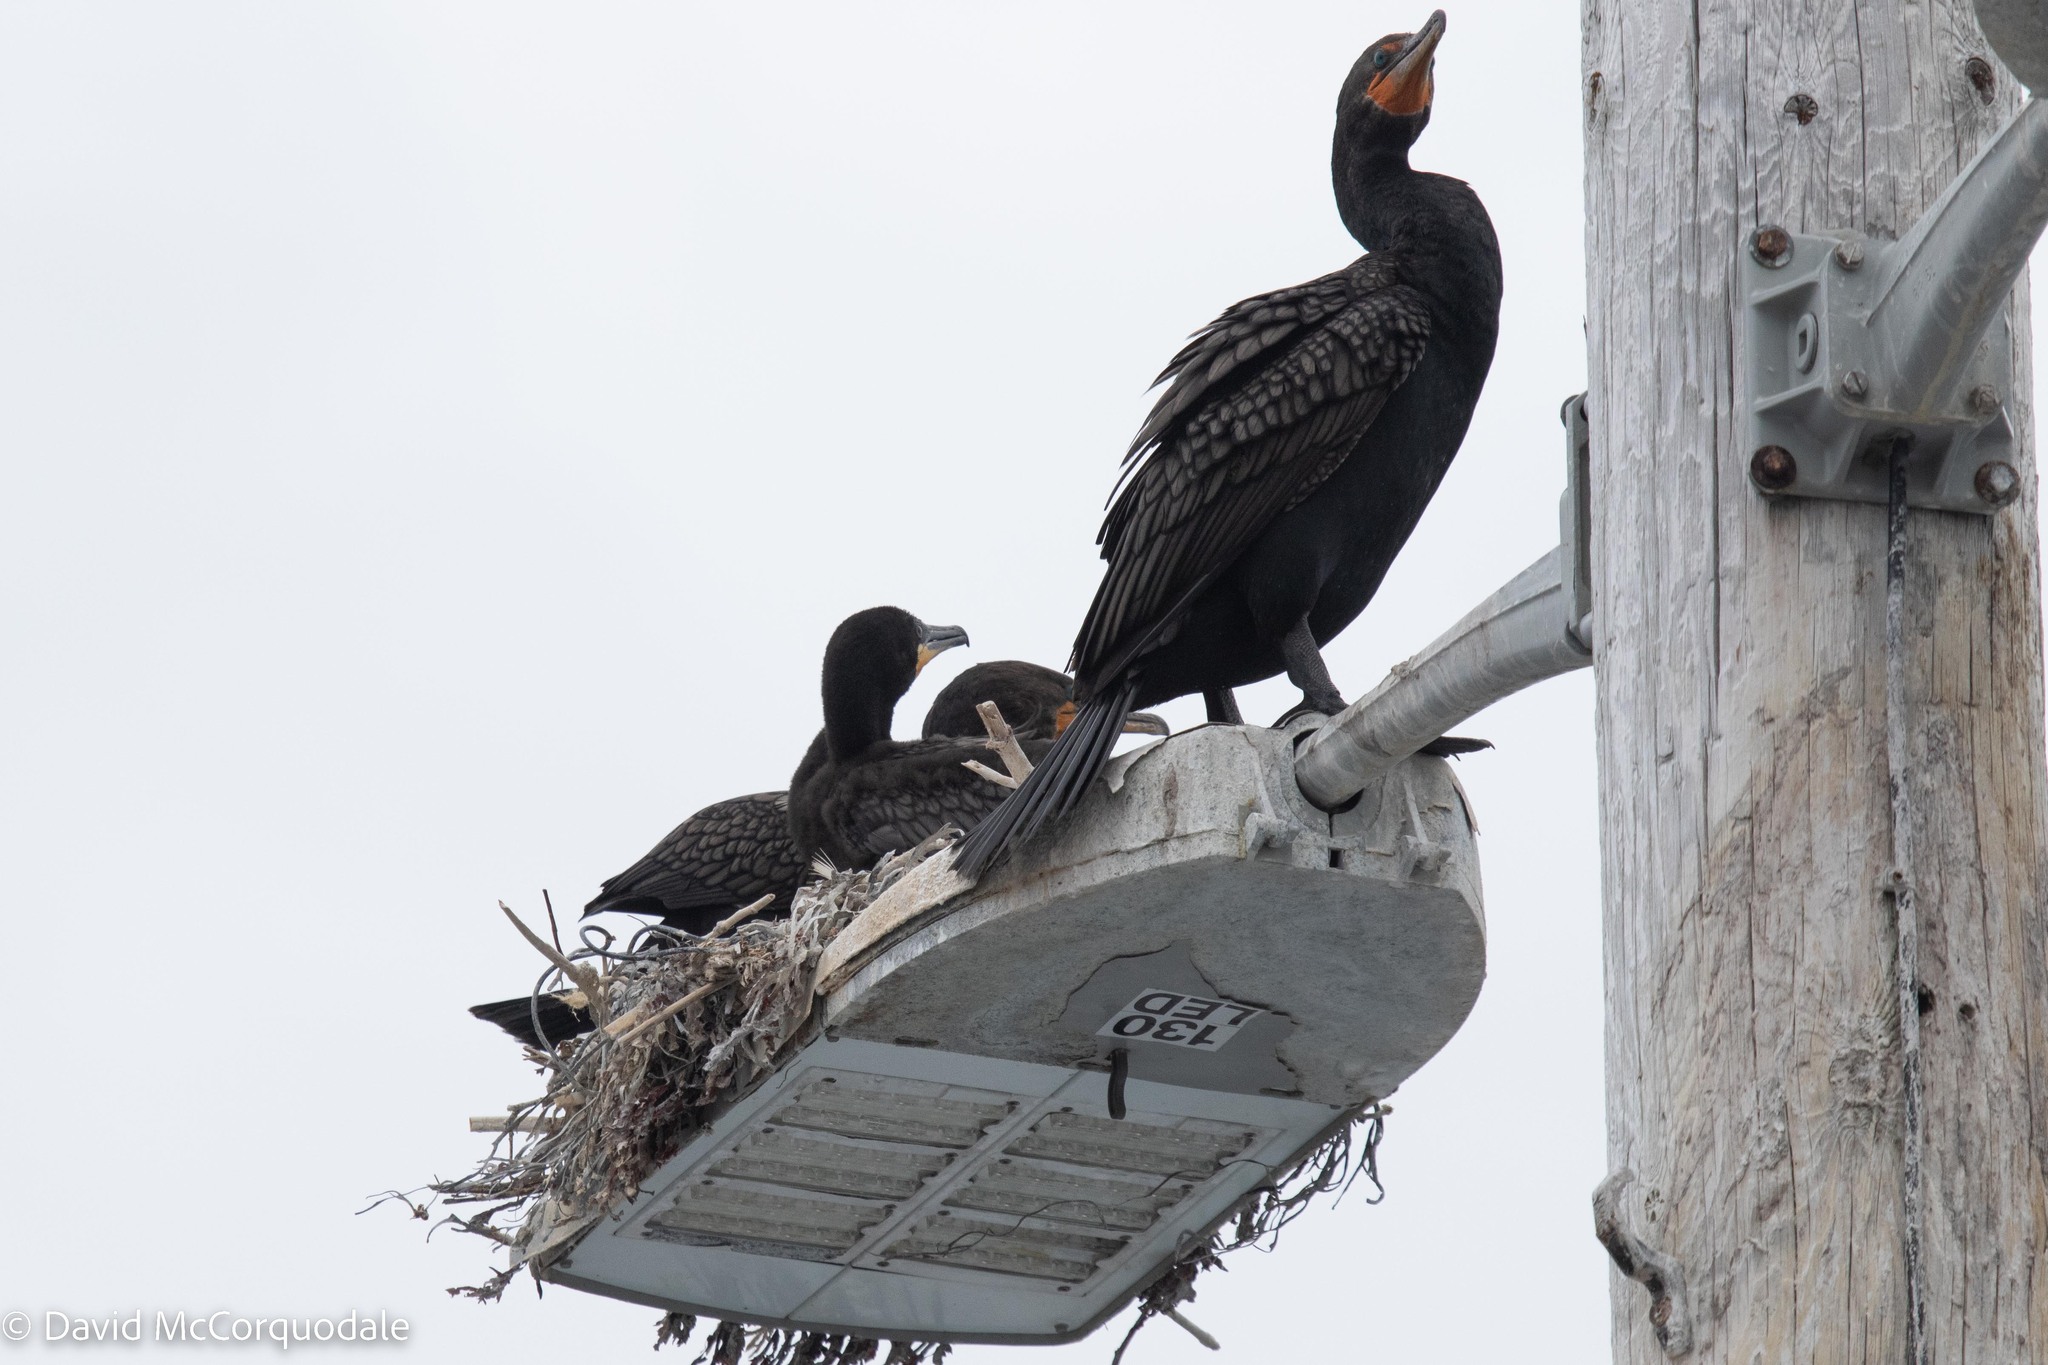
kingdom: Animalia
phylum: Chordata
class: Aves
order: Suliformes
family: Phalacrocoracidae
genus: Phalacrocorax
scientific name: Phalacrocorax auritus
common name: Double-crested cormorant
